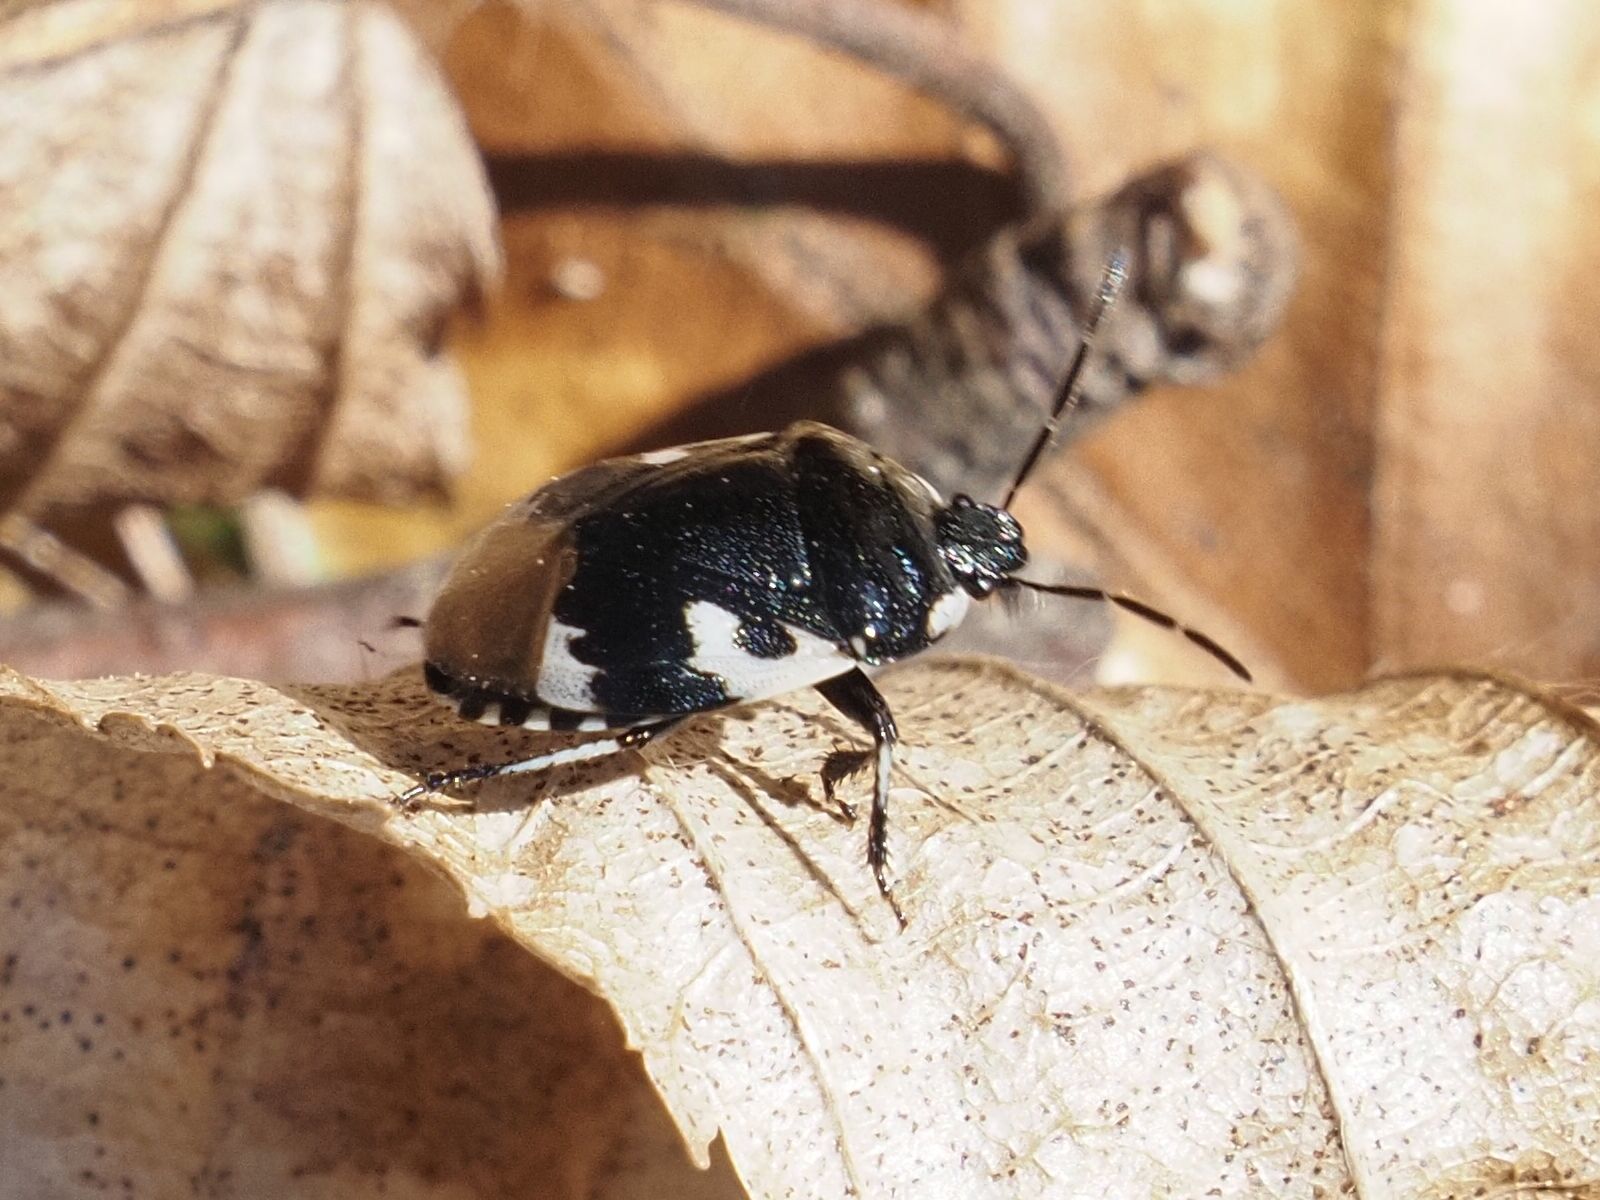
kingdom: Animalia
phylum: Arthropoda
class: Insecta
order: Hemiptera
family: Cydnidae
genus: Tritomegas
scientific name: Tritomegas bicolor
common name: Pied shieldbug
